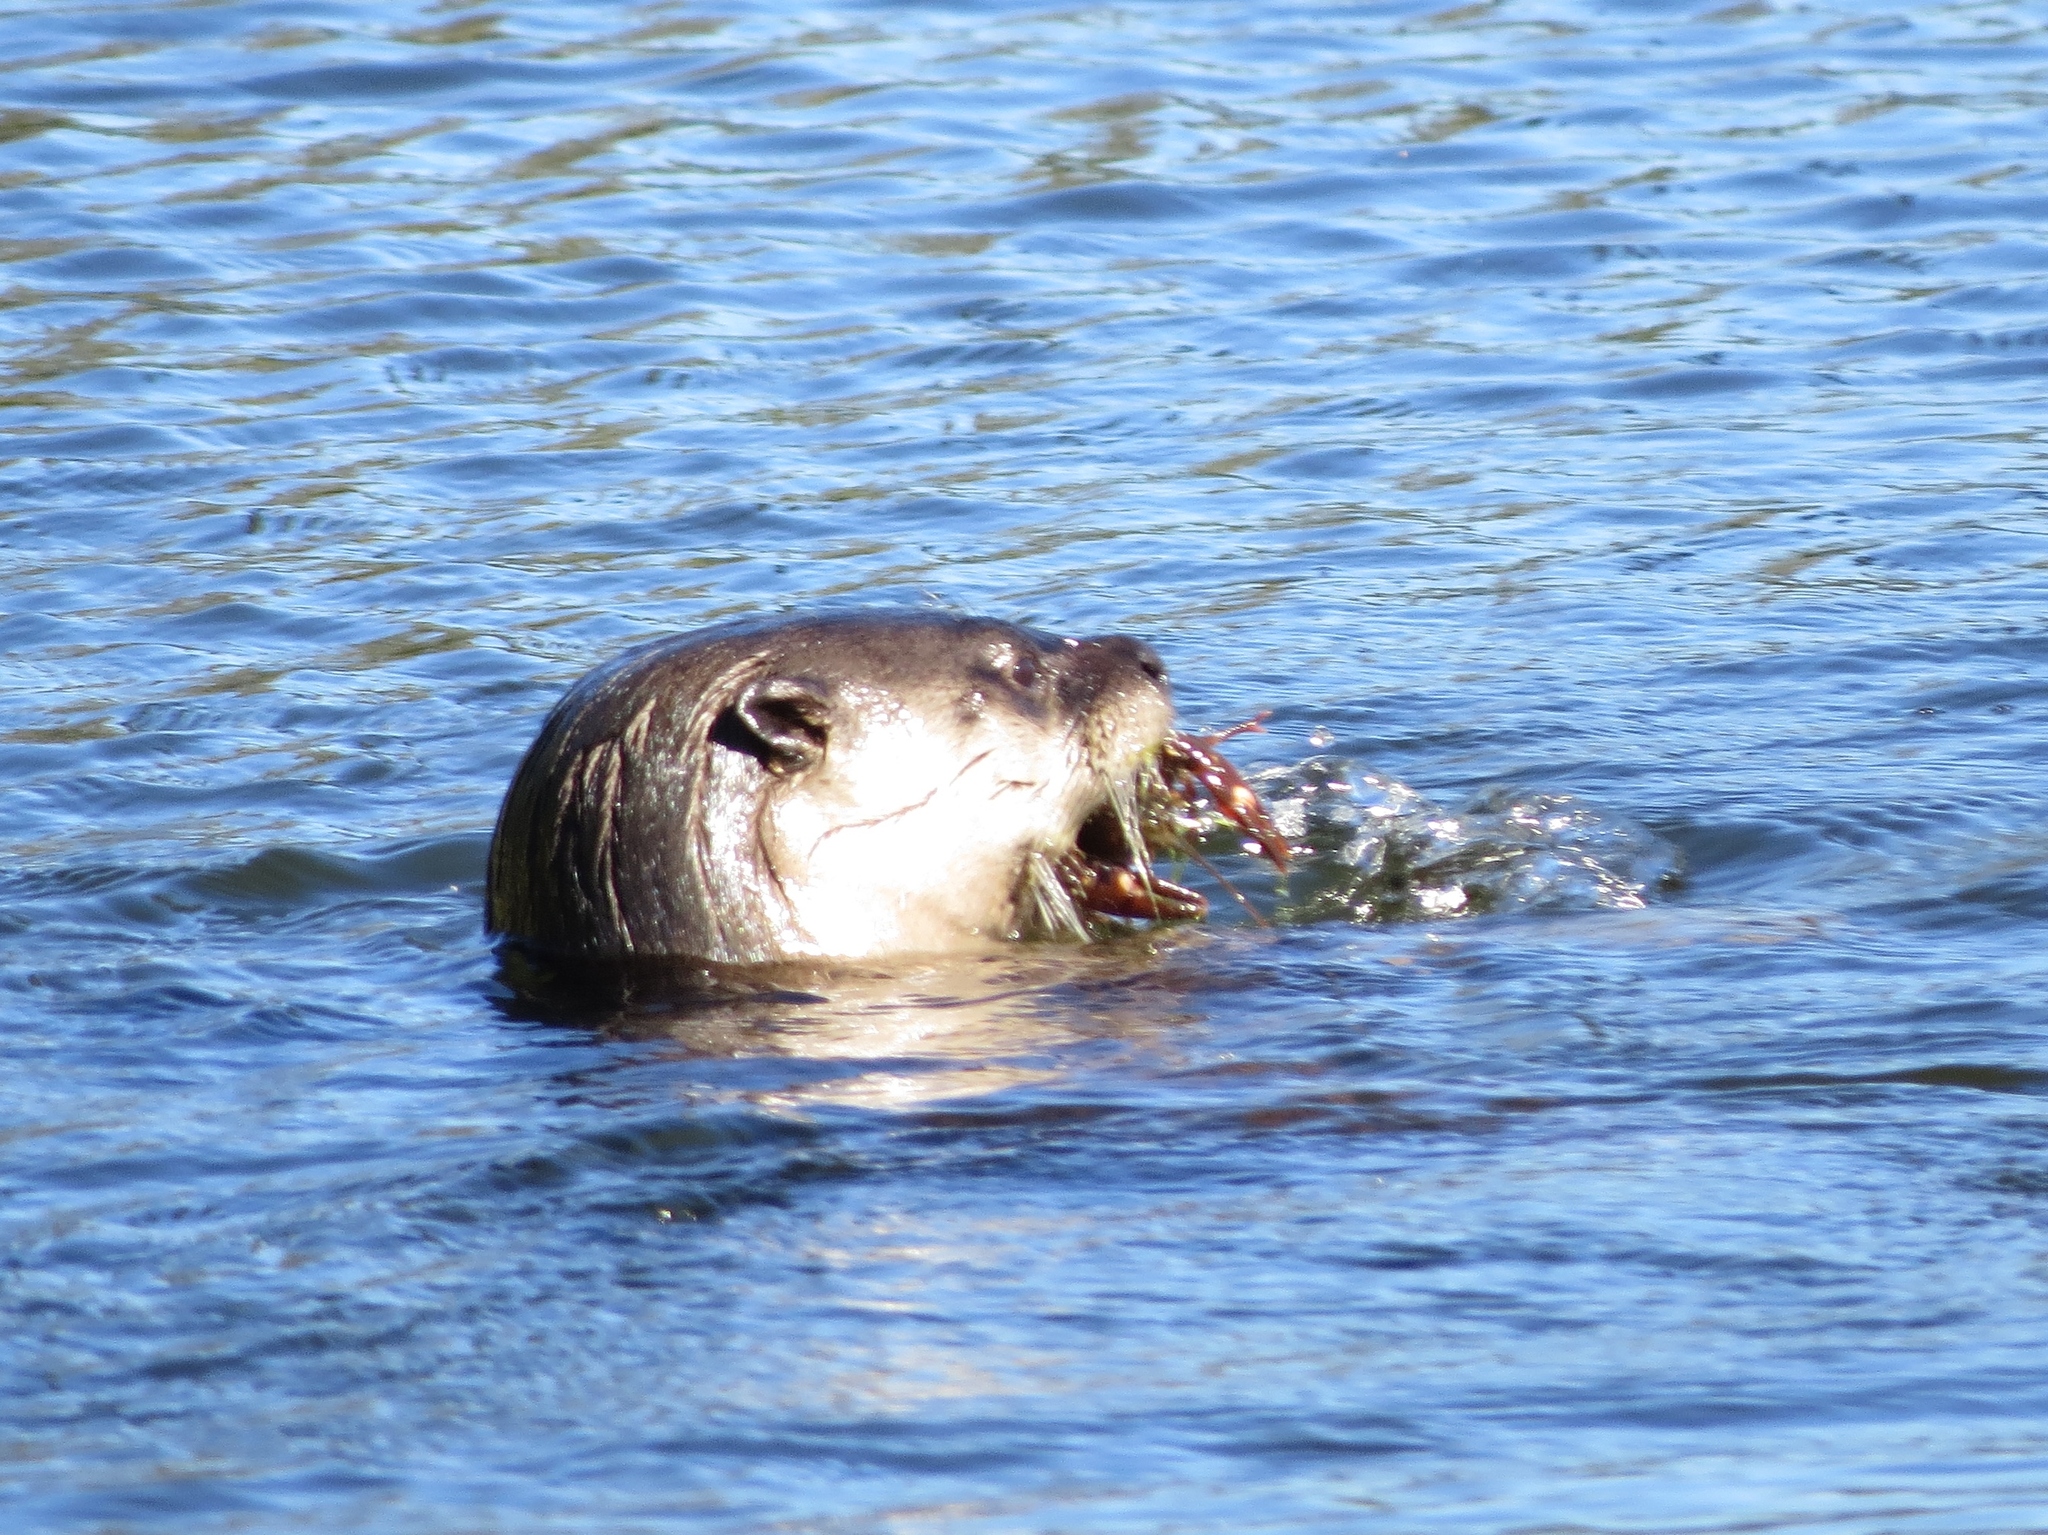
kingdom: Animalia
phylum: Chordata
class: Mammalia
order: Carnivora
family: Mustelidae
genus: Lontra
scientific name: Lontra canadensis
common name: North american river otter
